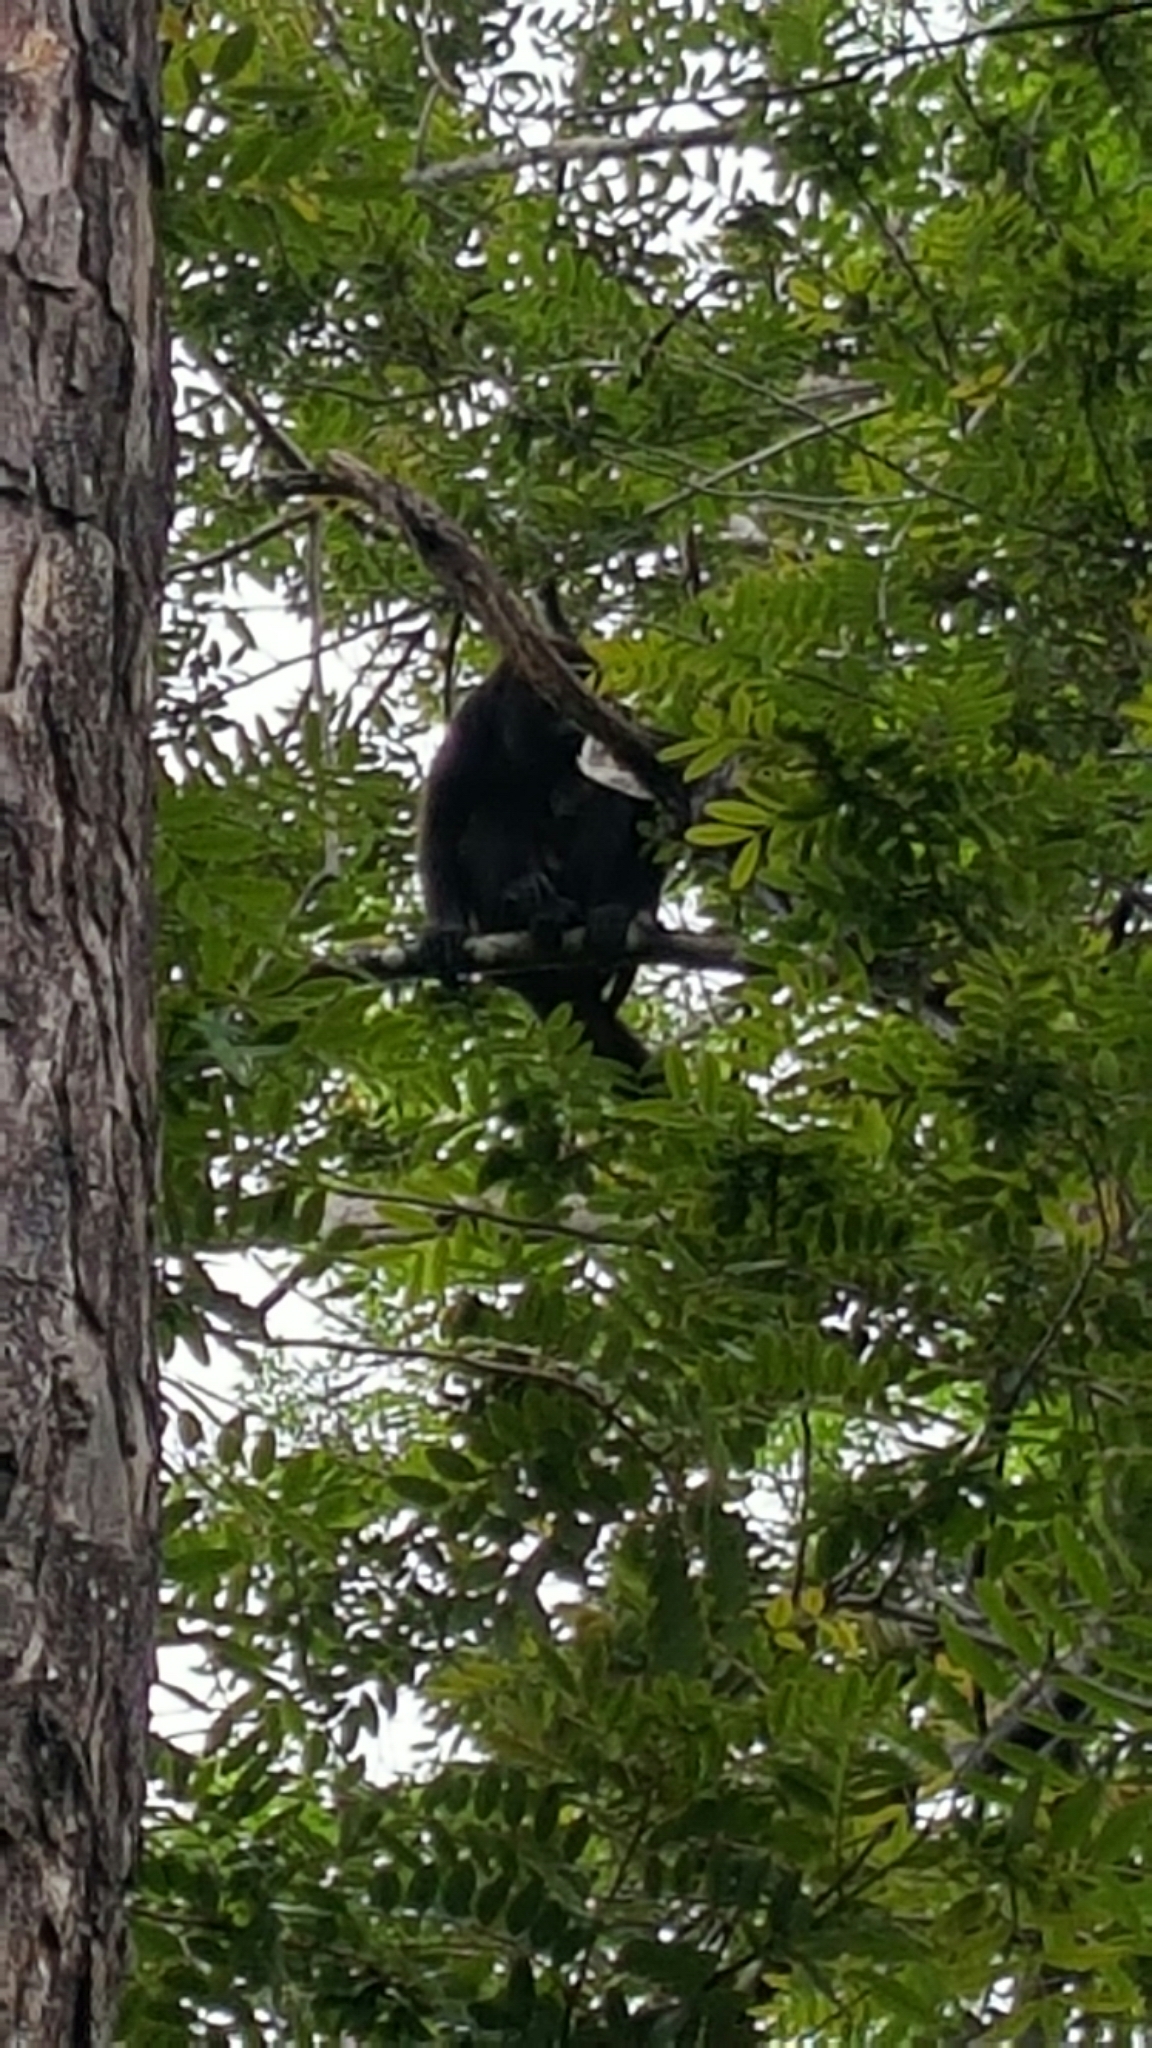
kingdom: Animalia
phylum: Chordata
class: Mammalia
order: Primates
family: Atelidae
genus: Alouatta
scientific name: Alouatta palliata
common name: Mantled howler
